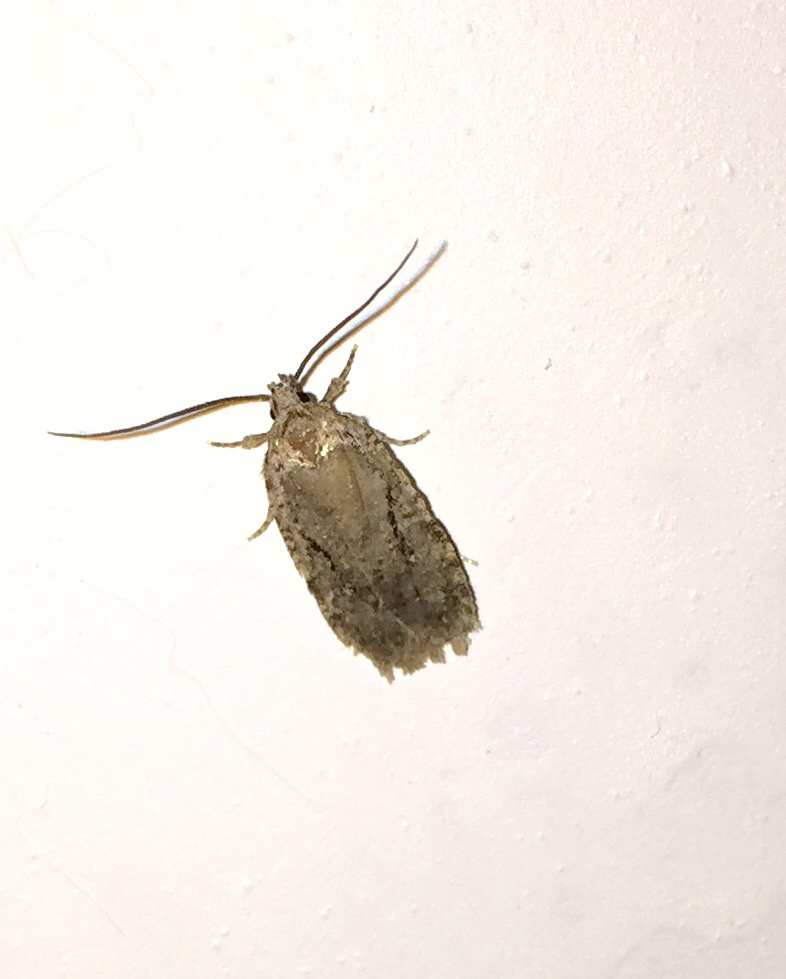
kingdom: Animalia
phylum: Arthropoda
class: Insecta
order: Lepidoptera
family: Depressariidae
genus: Agonopterix
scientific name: Agonopterix curvilineella
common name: Curved-line agonopterix moth
